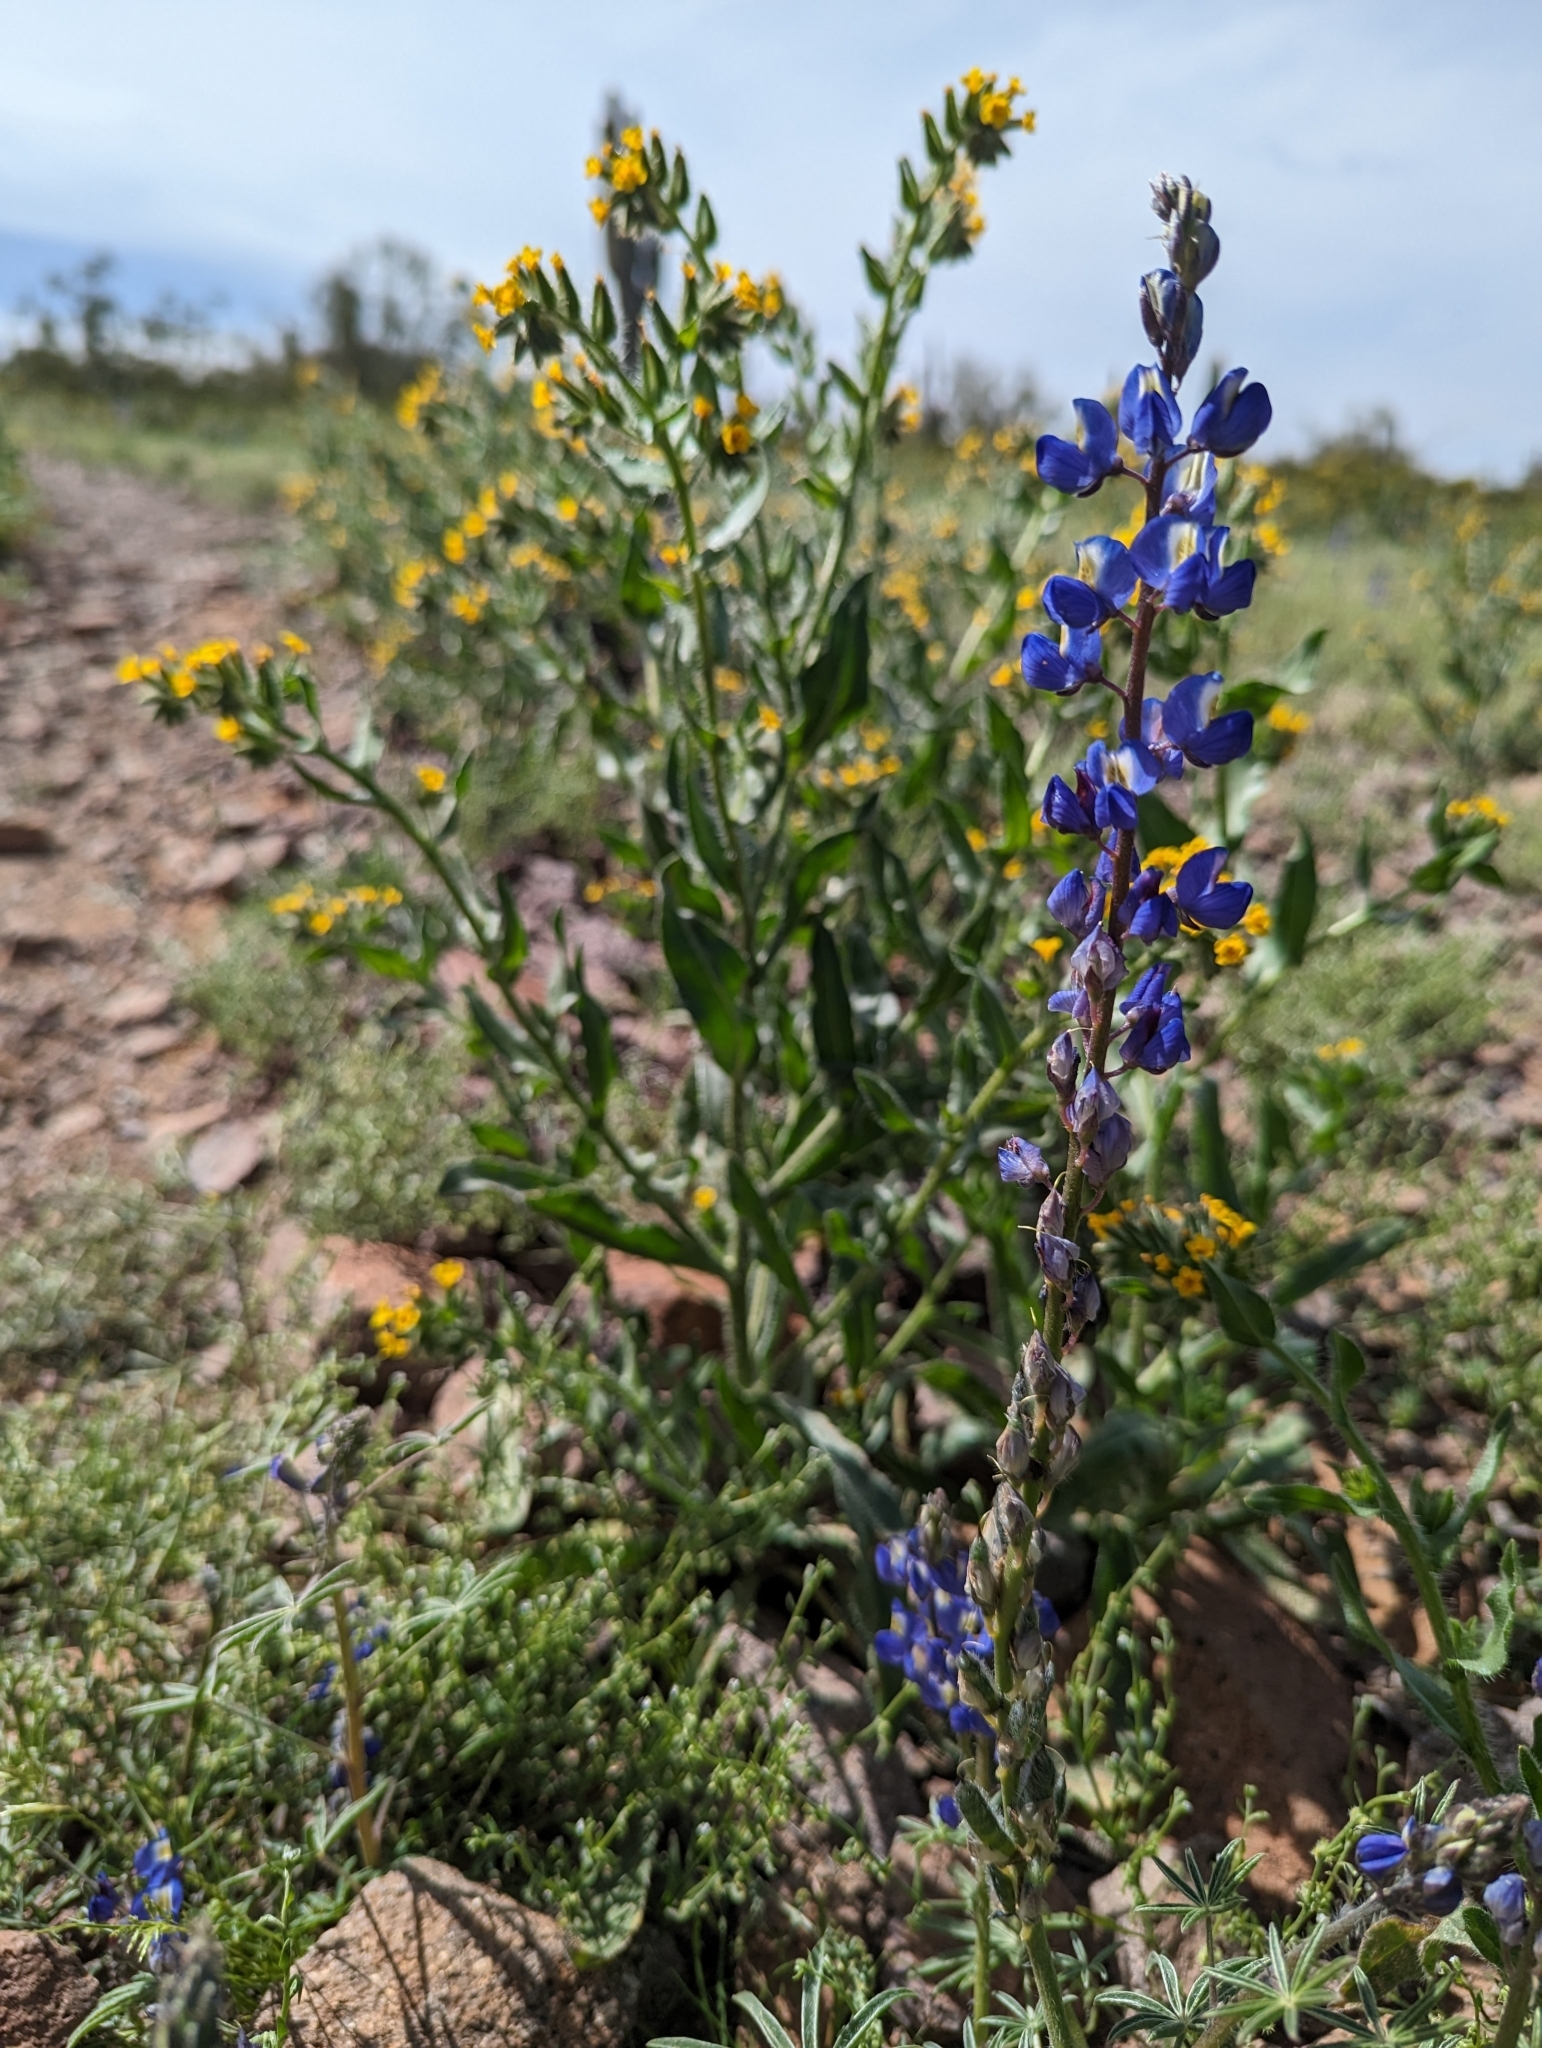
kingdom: Plantae
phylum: Tracheophyta
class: Magnoliopsida
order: Fabales
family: Fabaceae
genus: Lupinus
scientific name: Lupinus sparsiflorus
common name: Coulter's lupine
